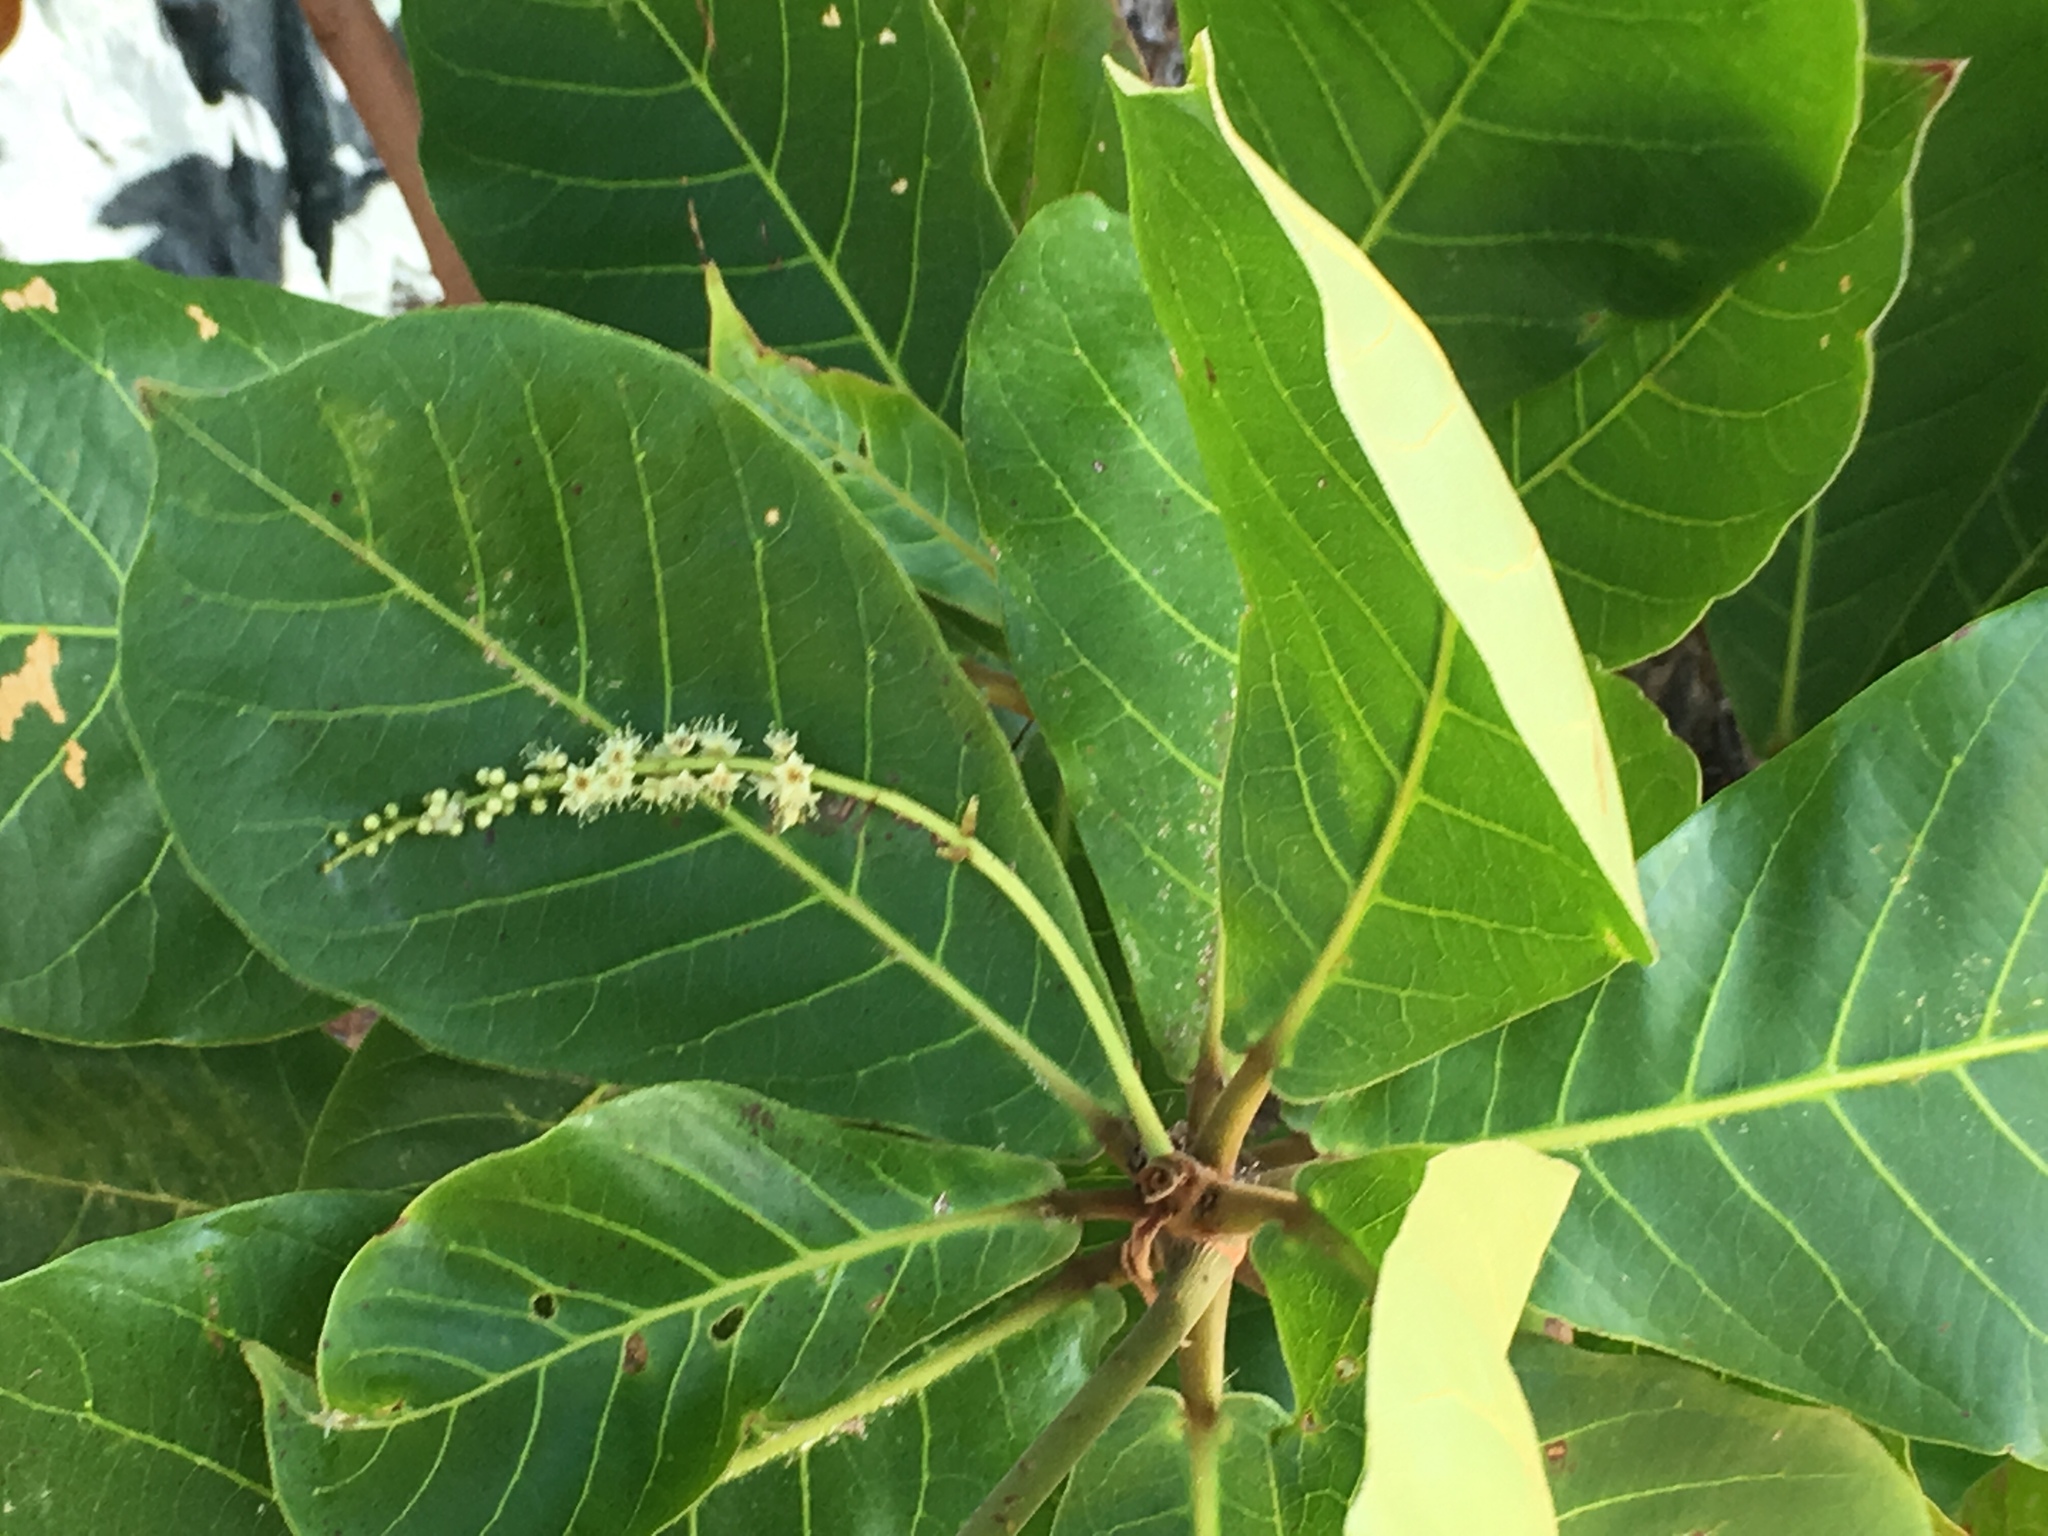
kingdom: Plantae
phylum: Tracheophyta
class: Magnoliopsida
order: Myrtales
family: Combretaceae
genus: Terminalia
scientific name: Terminalia catappa
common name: Tropical almond
